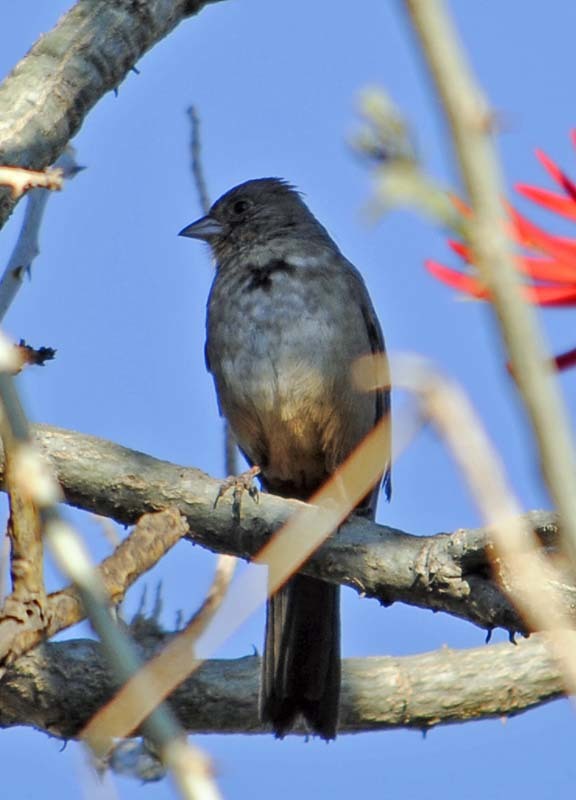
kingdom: Animalia
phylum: Chordata
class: Aves
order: Passeriformes
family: Passerellidae
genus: Melozone
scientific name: Melozone fusca
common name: Canyon towhee
